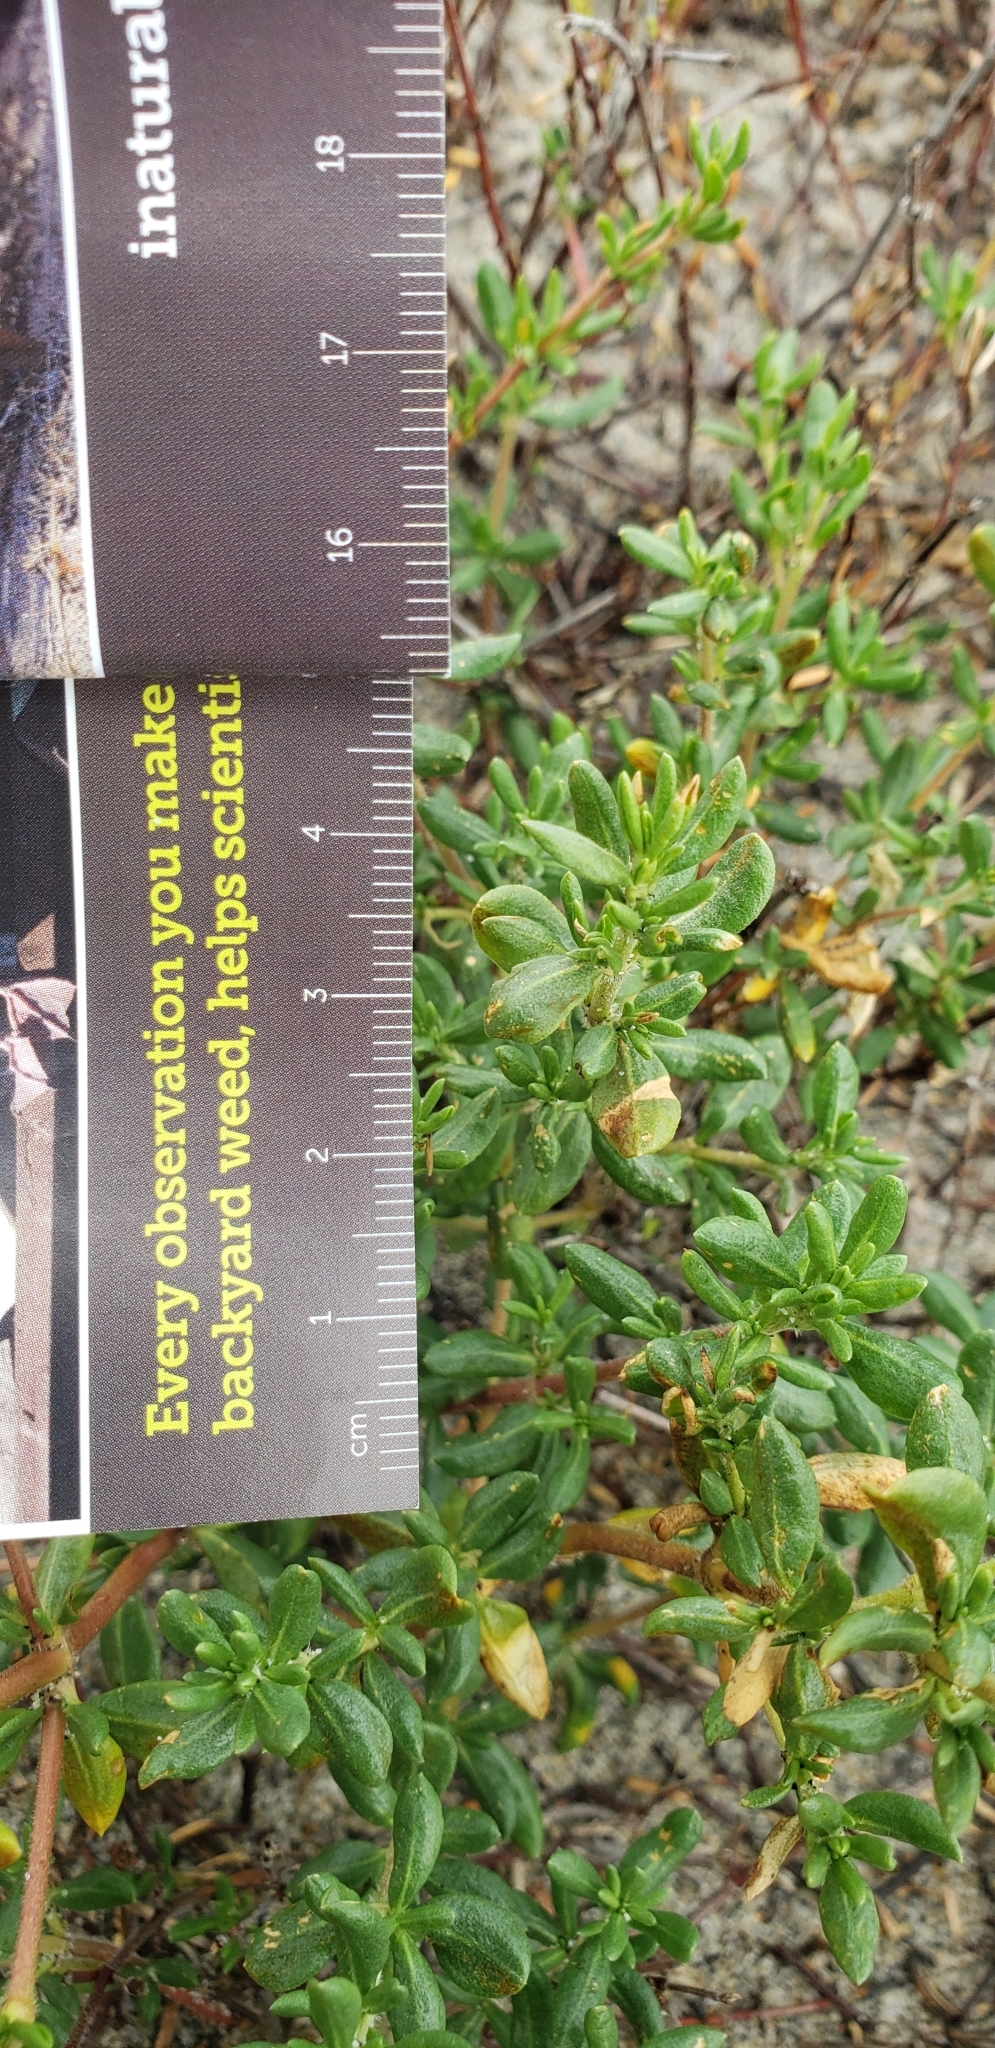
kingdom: Plantae
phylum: Tracheophyta
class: Magnoliopsida
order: Caryophyllales
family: Frankeniaceae
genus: Frankenia
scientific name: Frankenia salina
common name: Alkali seaheath
